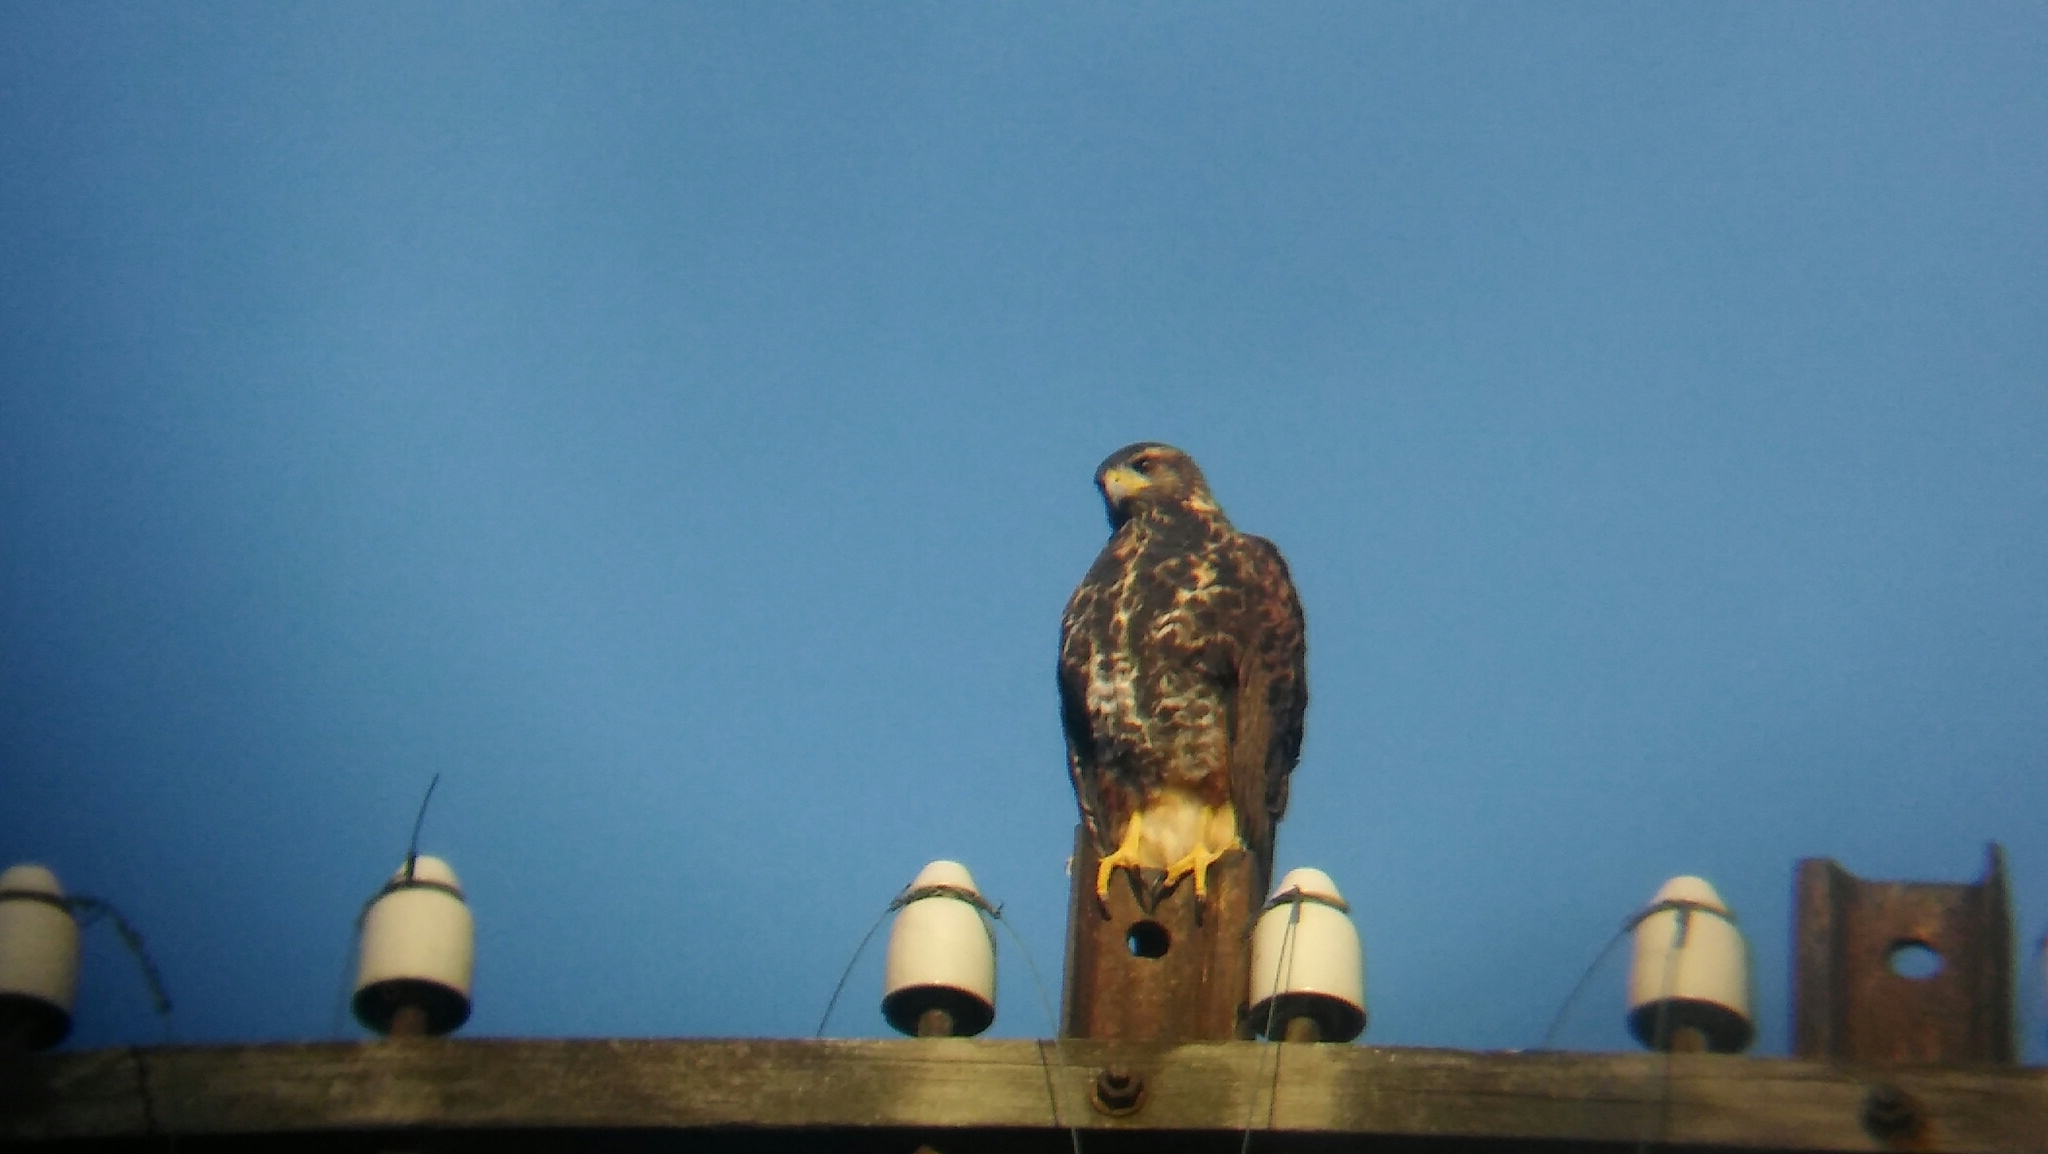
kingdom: Animalia
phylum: Chordata
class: Aves
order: Accipitriformes
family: Accipitridae
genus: Parabuteo
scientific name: Parabuteo unicinctus
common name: Harris's hawk
